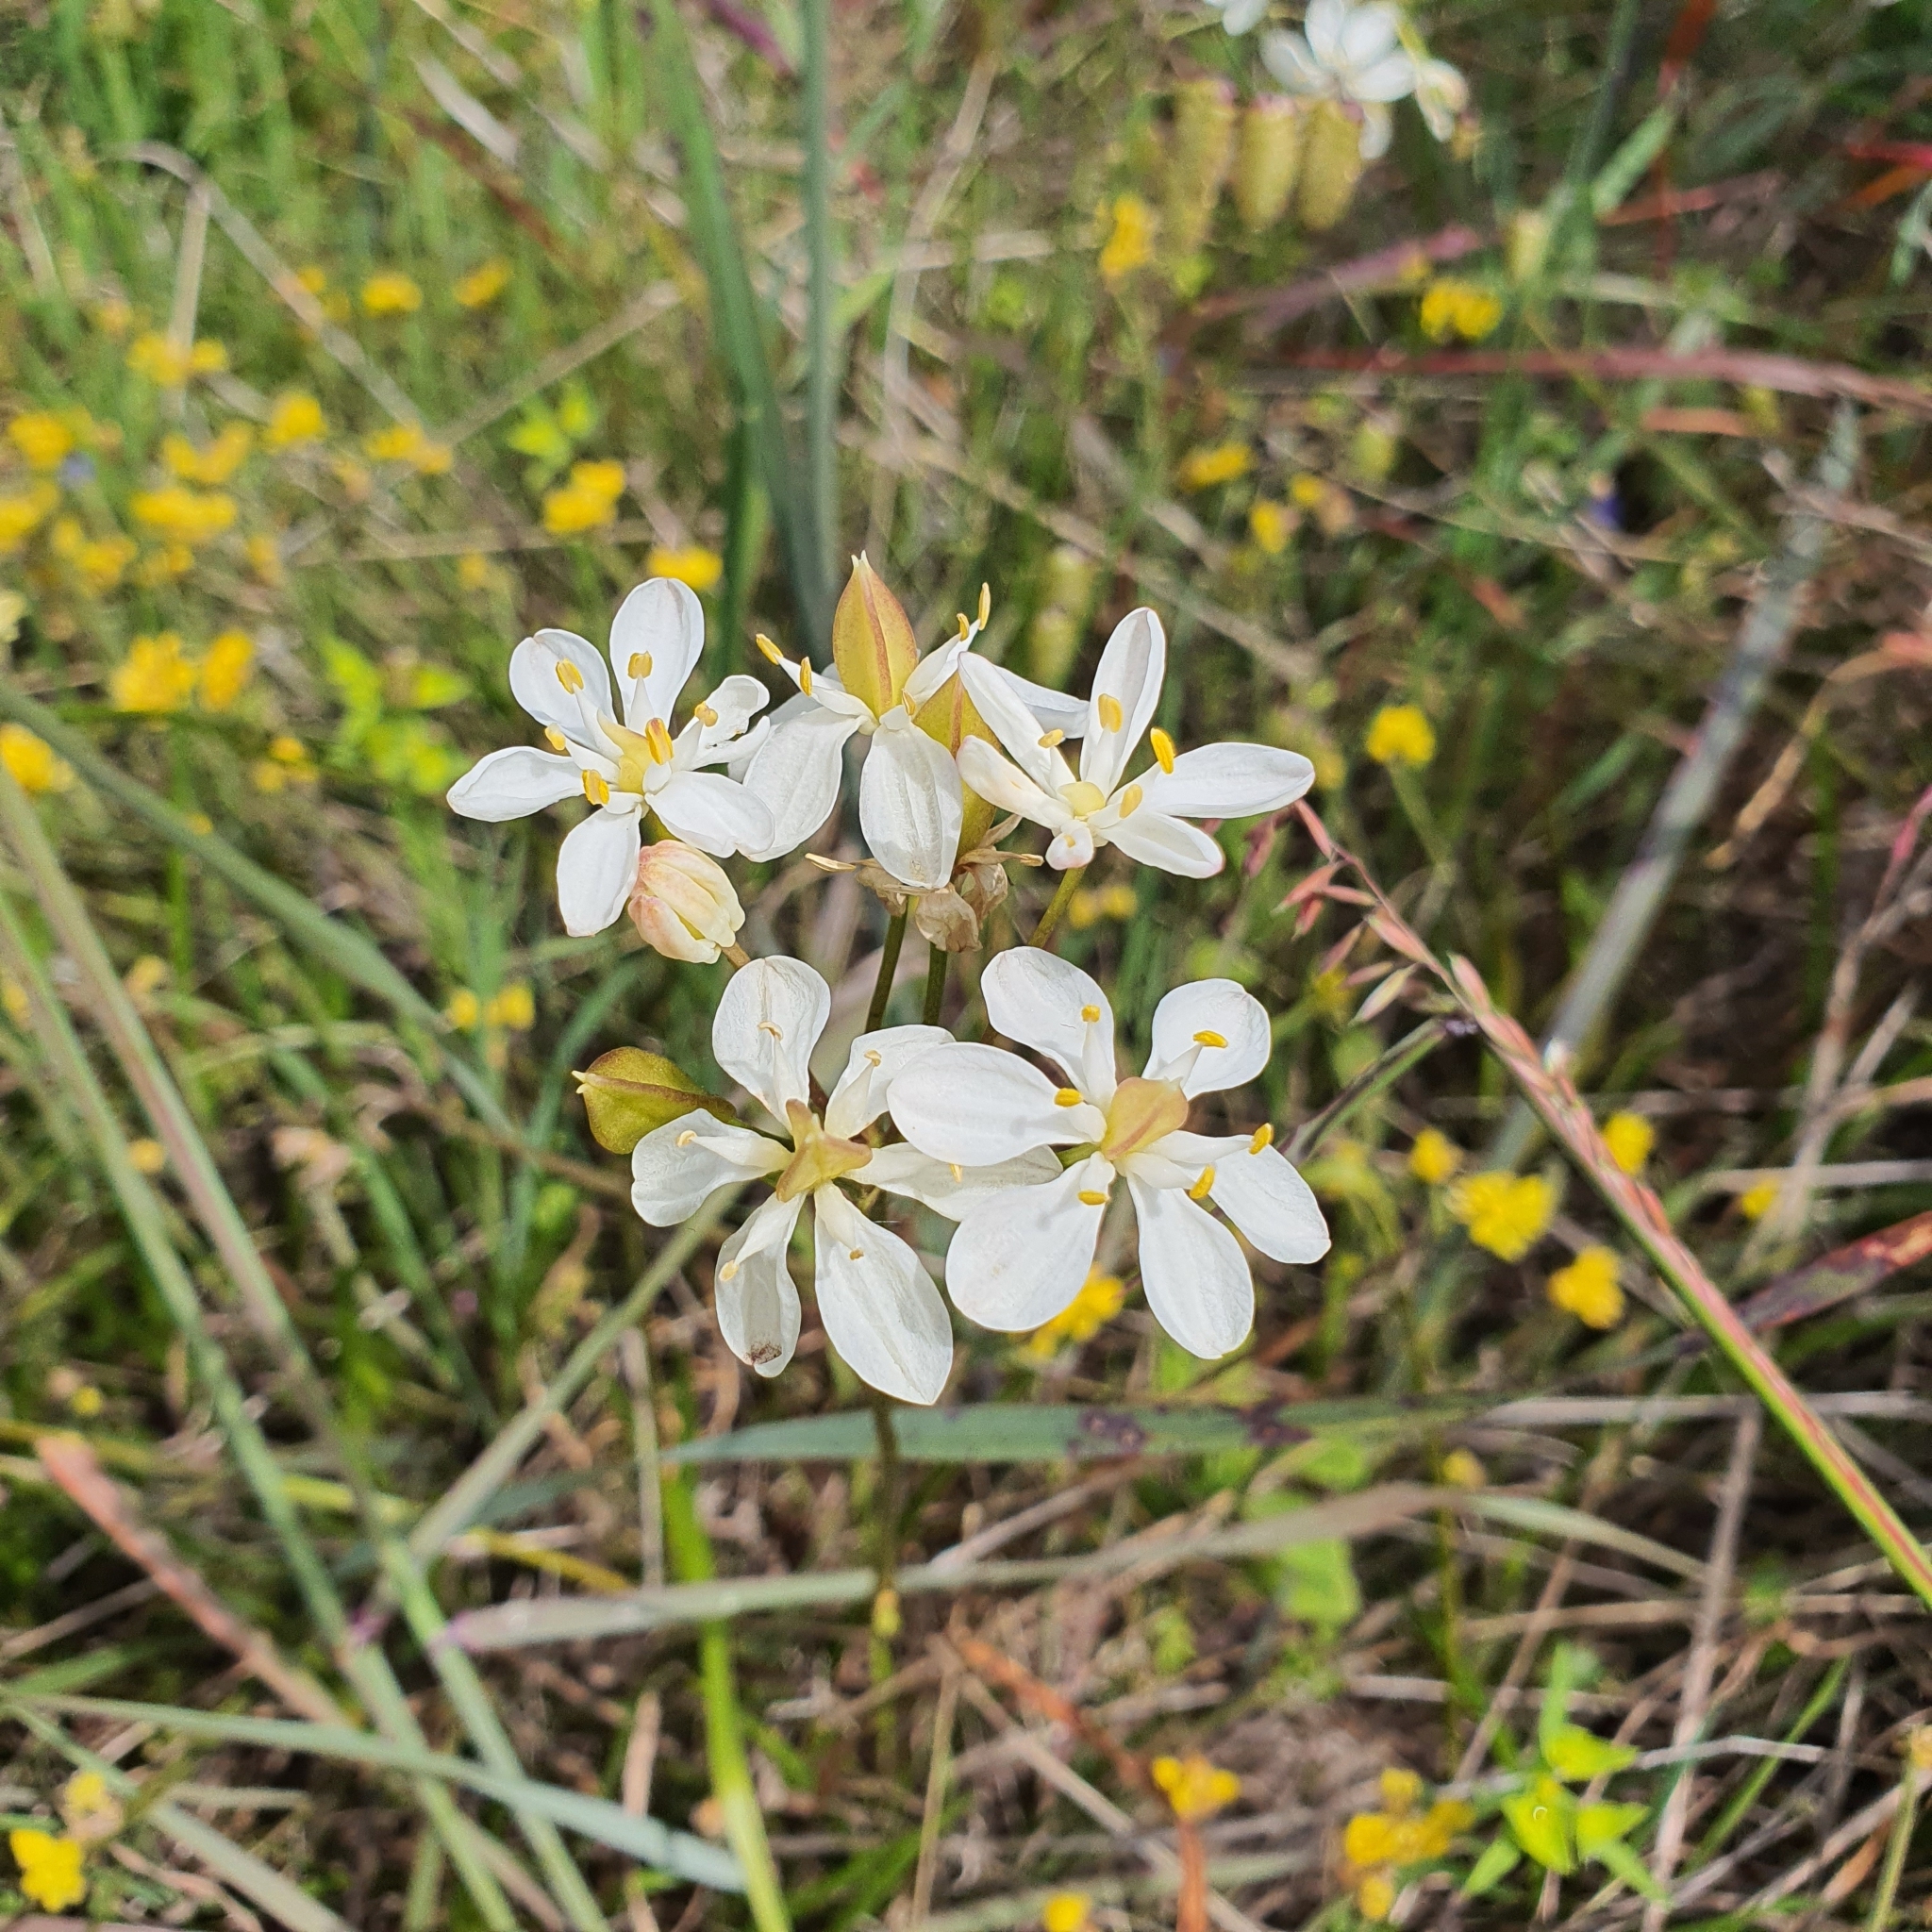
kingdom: Plantae
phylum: Tracheophyta
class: Liliopsida
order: Liliales
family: Colchicaceae
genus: Burchardia
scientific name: Burchardia congesta
